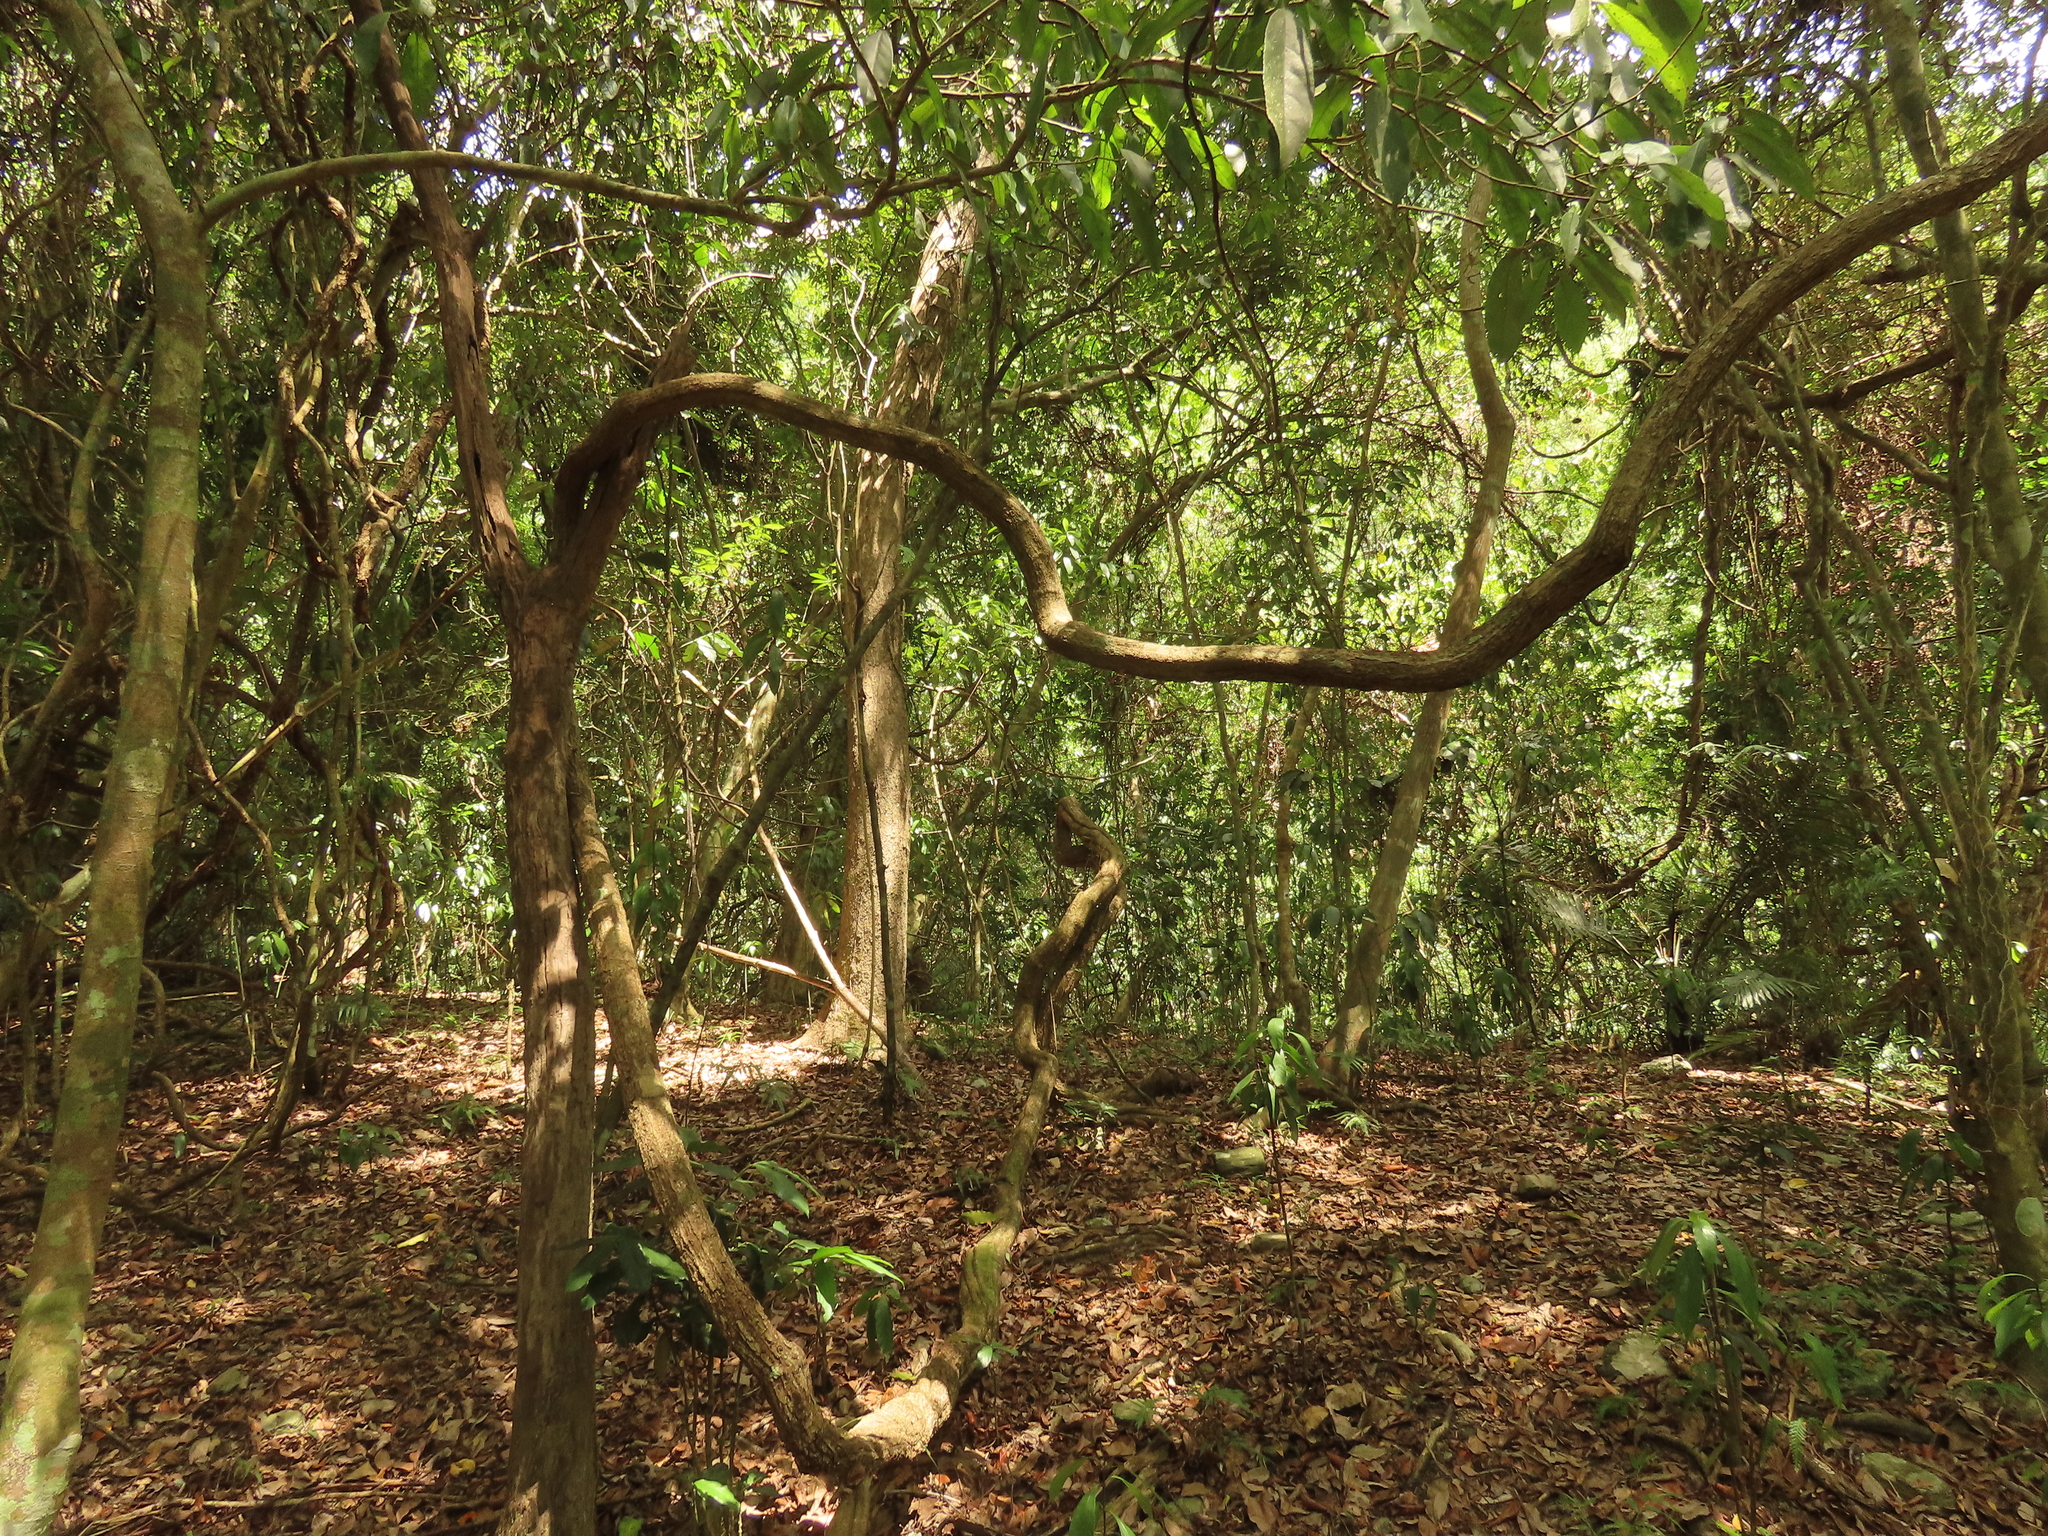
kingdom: Plantae
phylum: Tracheophyta
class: Magnoliopsida
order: Malpighiales
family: Malpighiaceae
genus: Hiptage
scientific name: Hiptage benghalensis
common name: Hiptage
